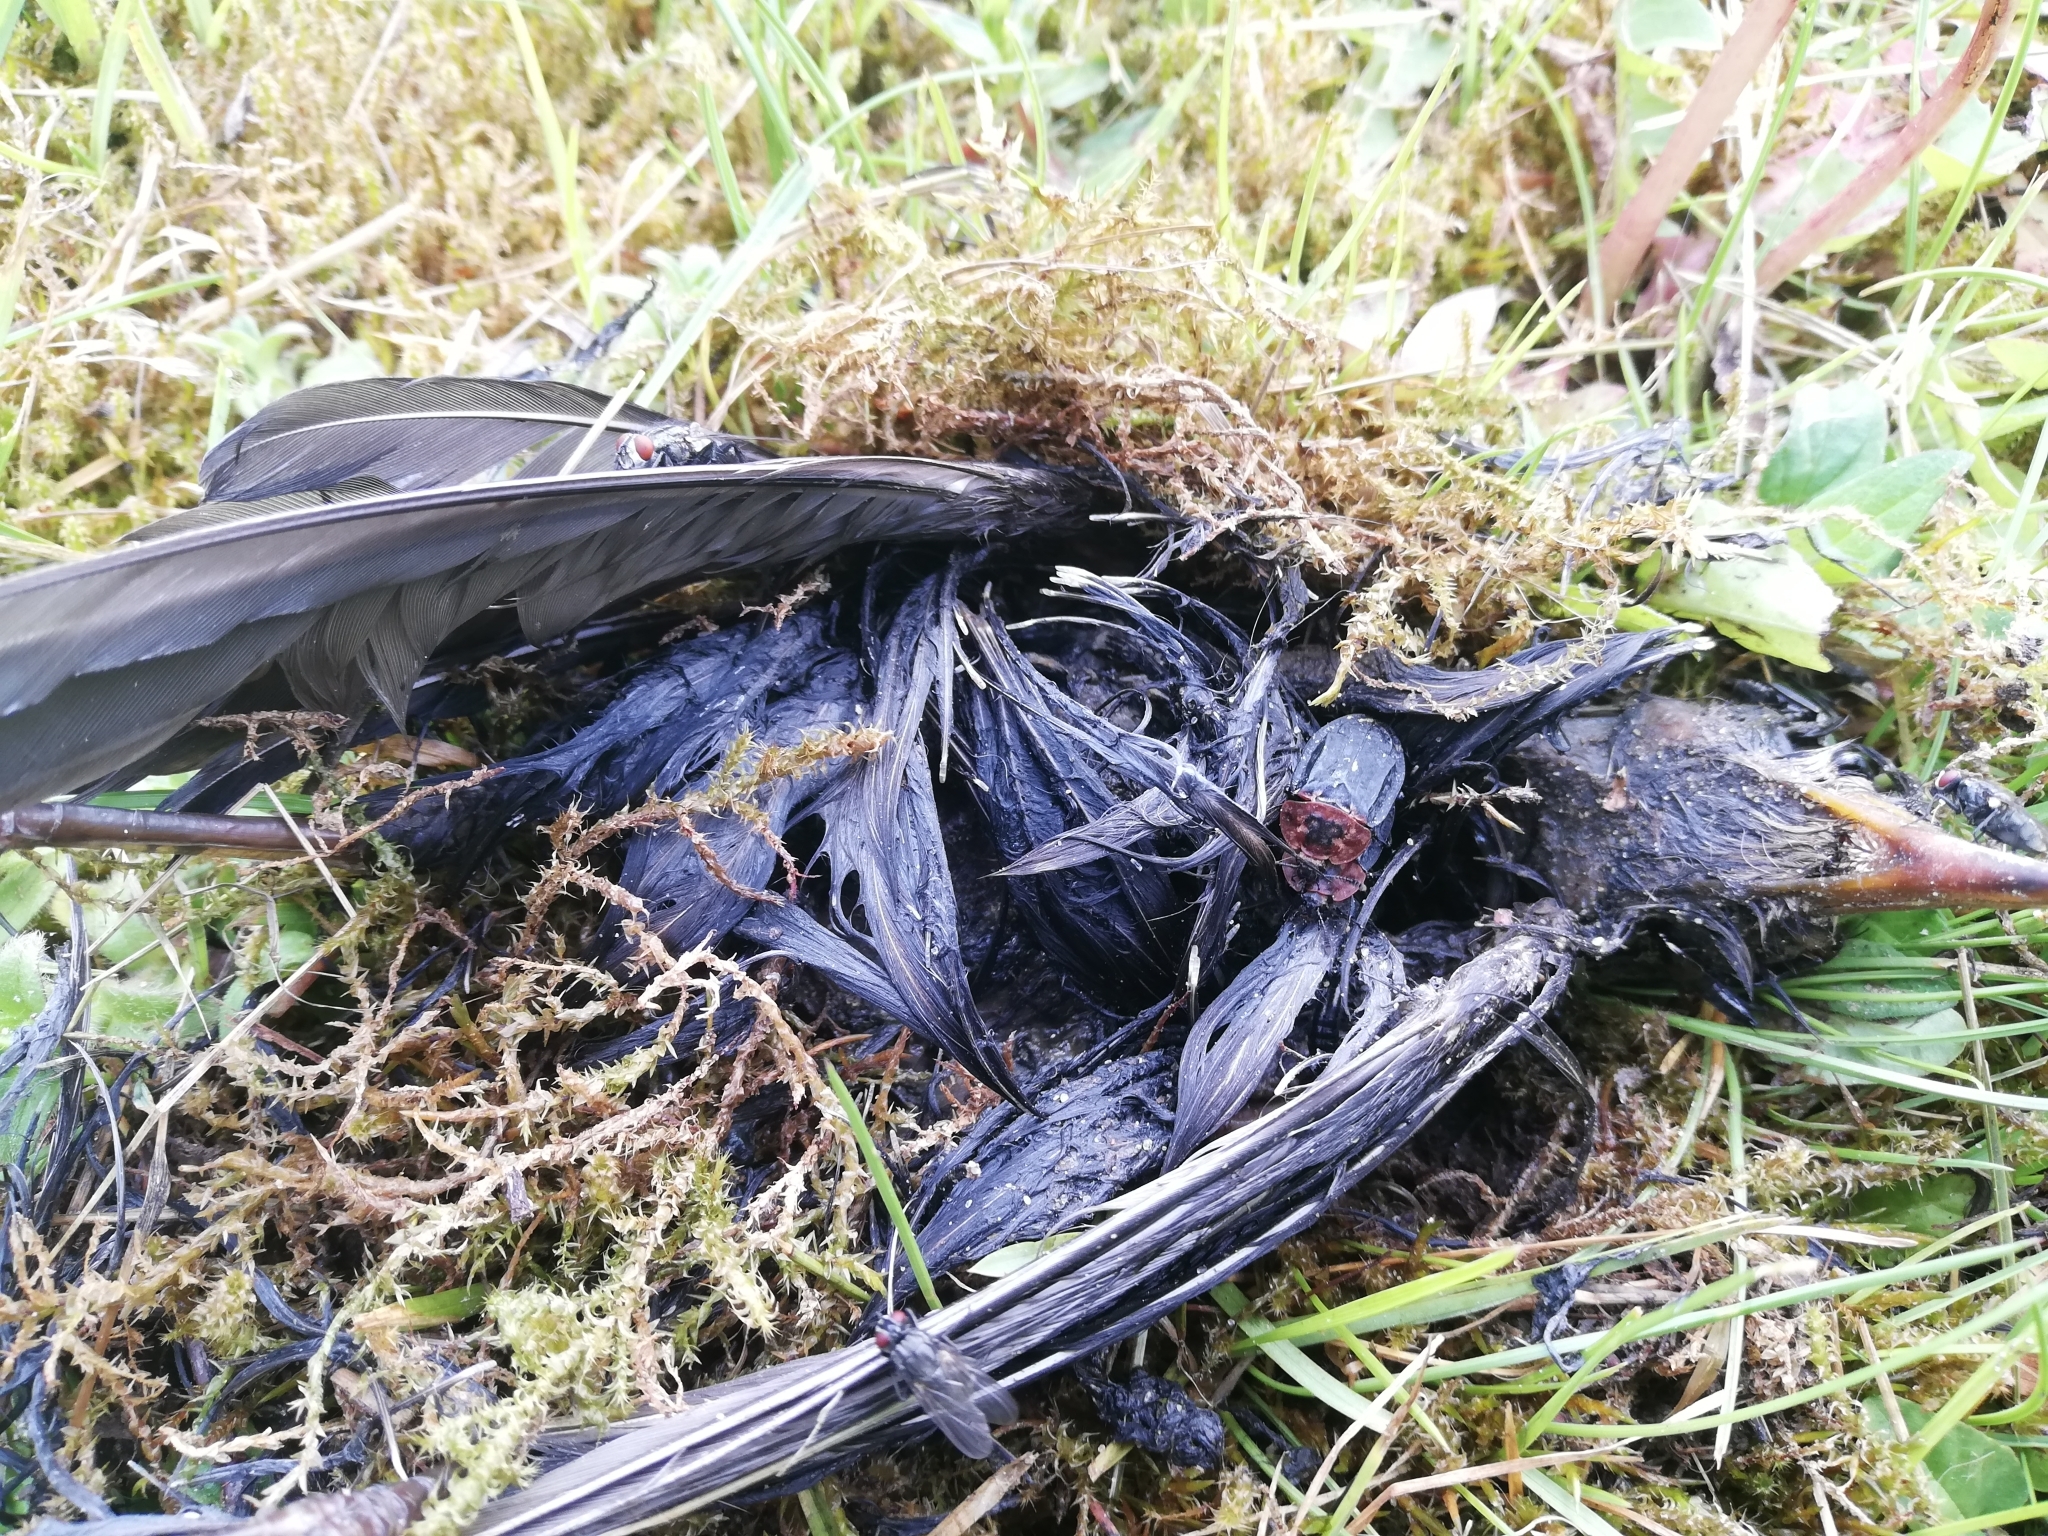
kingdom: Animalia
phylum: Arthropoda
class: Insecta
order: Coleoptera
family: Staphylinidae
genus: Oiceoptoma
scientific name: Oiceoptoma thoracicum
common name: Red-breasted carrion beetle
